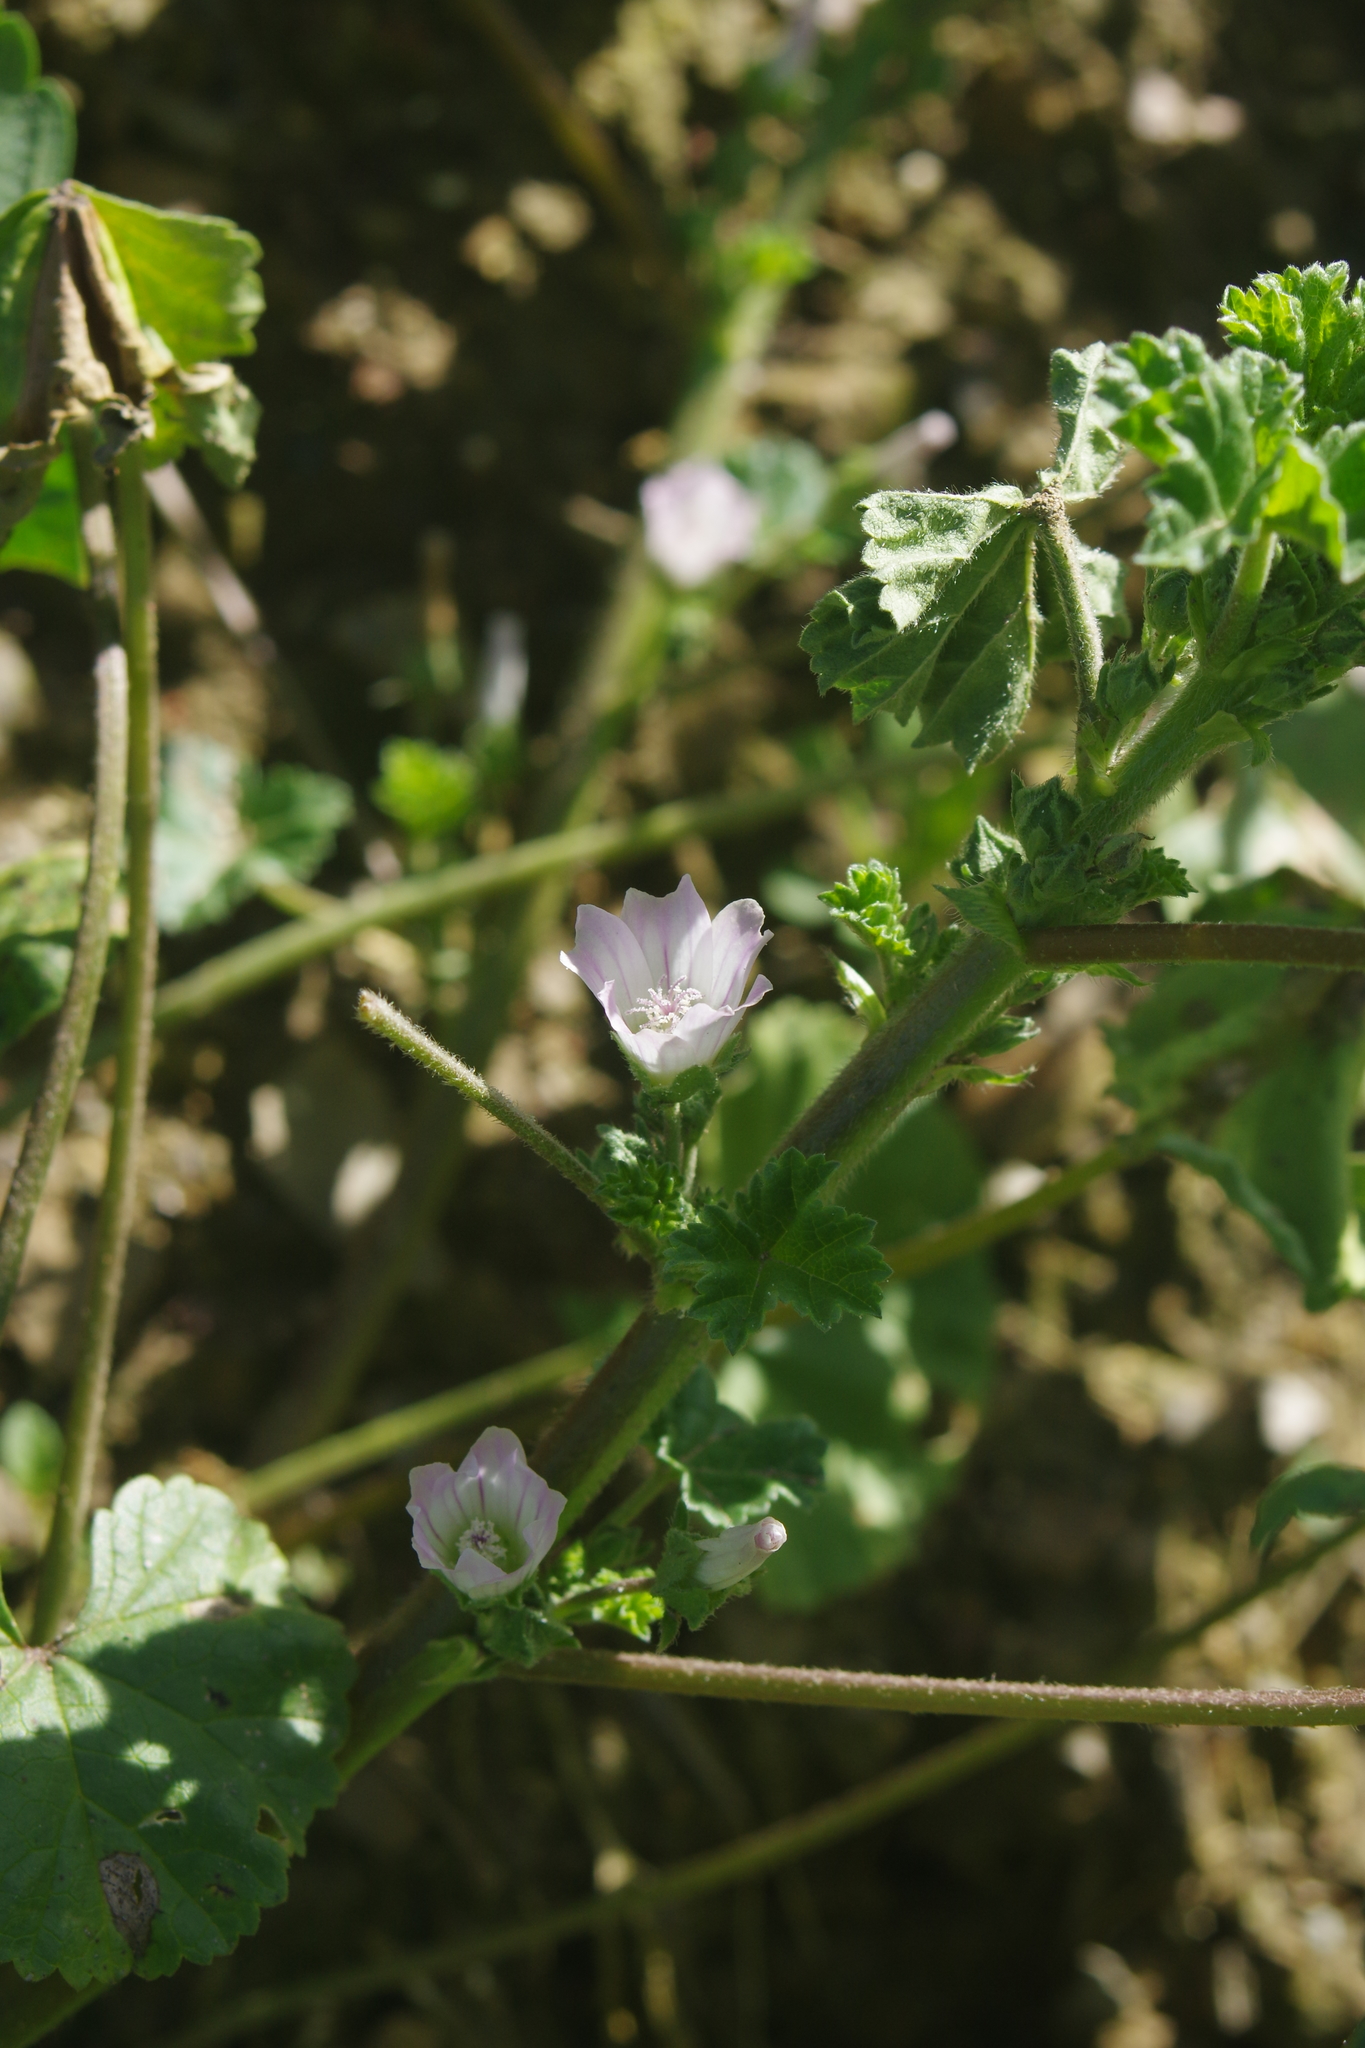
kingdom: Plantae
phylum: Tracheophyta
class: Magnoliopsida
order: Malvales
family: Malvaceae
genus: Malva
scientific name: Malva neglecta
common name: Common mallow
